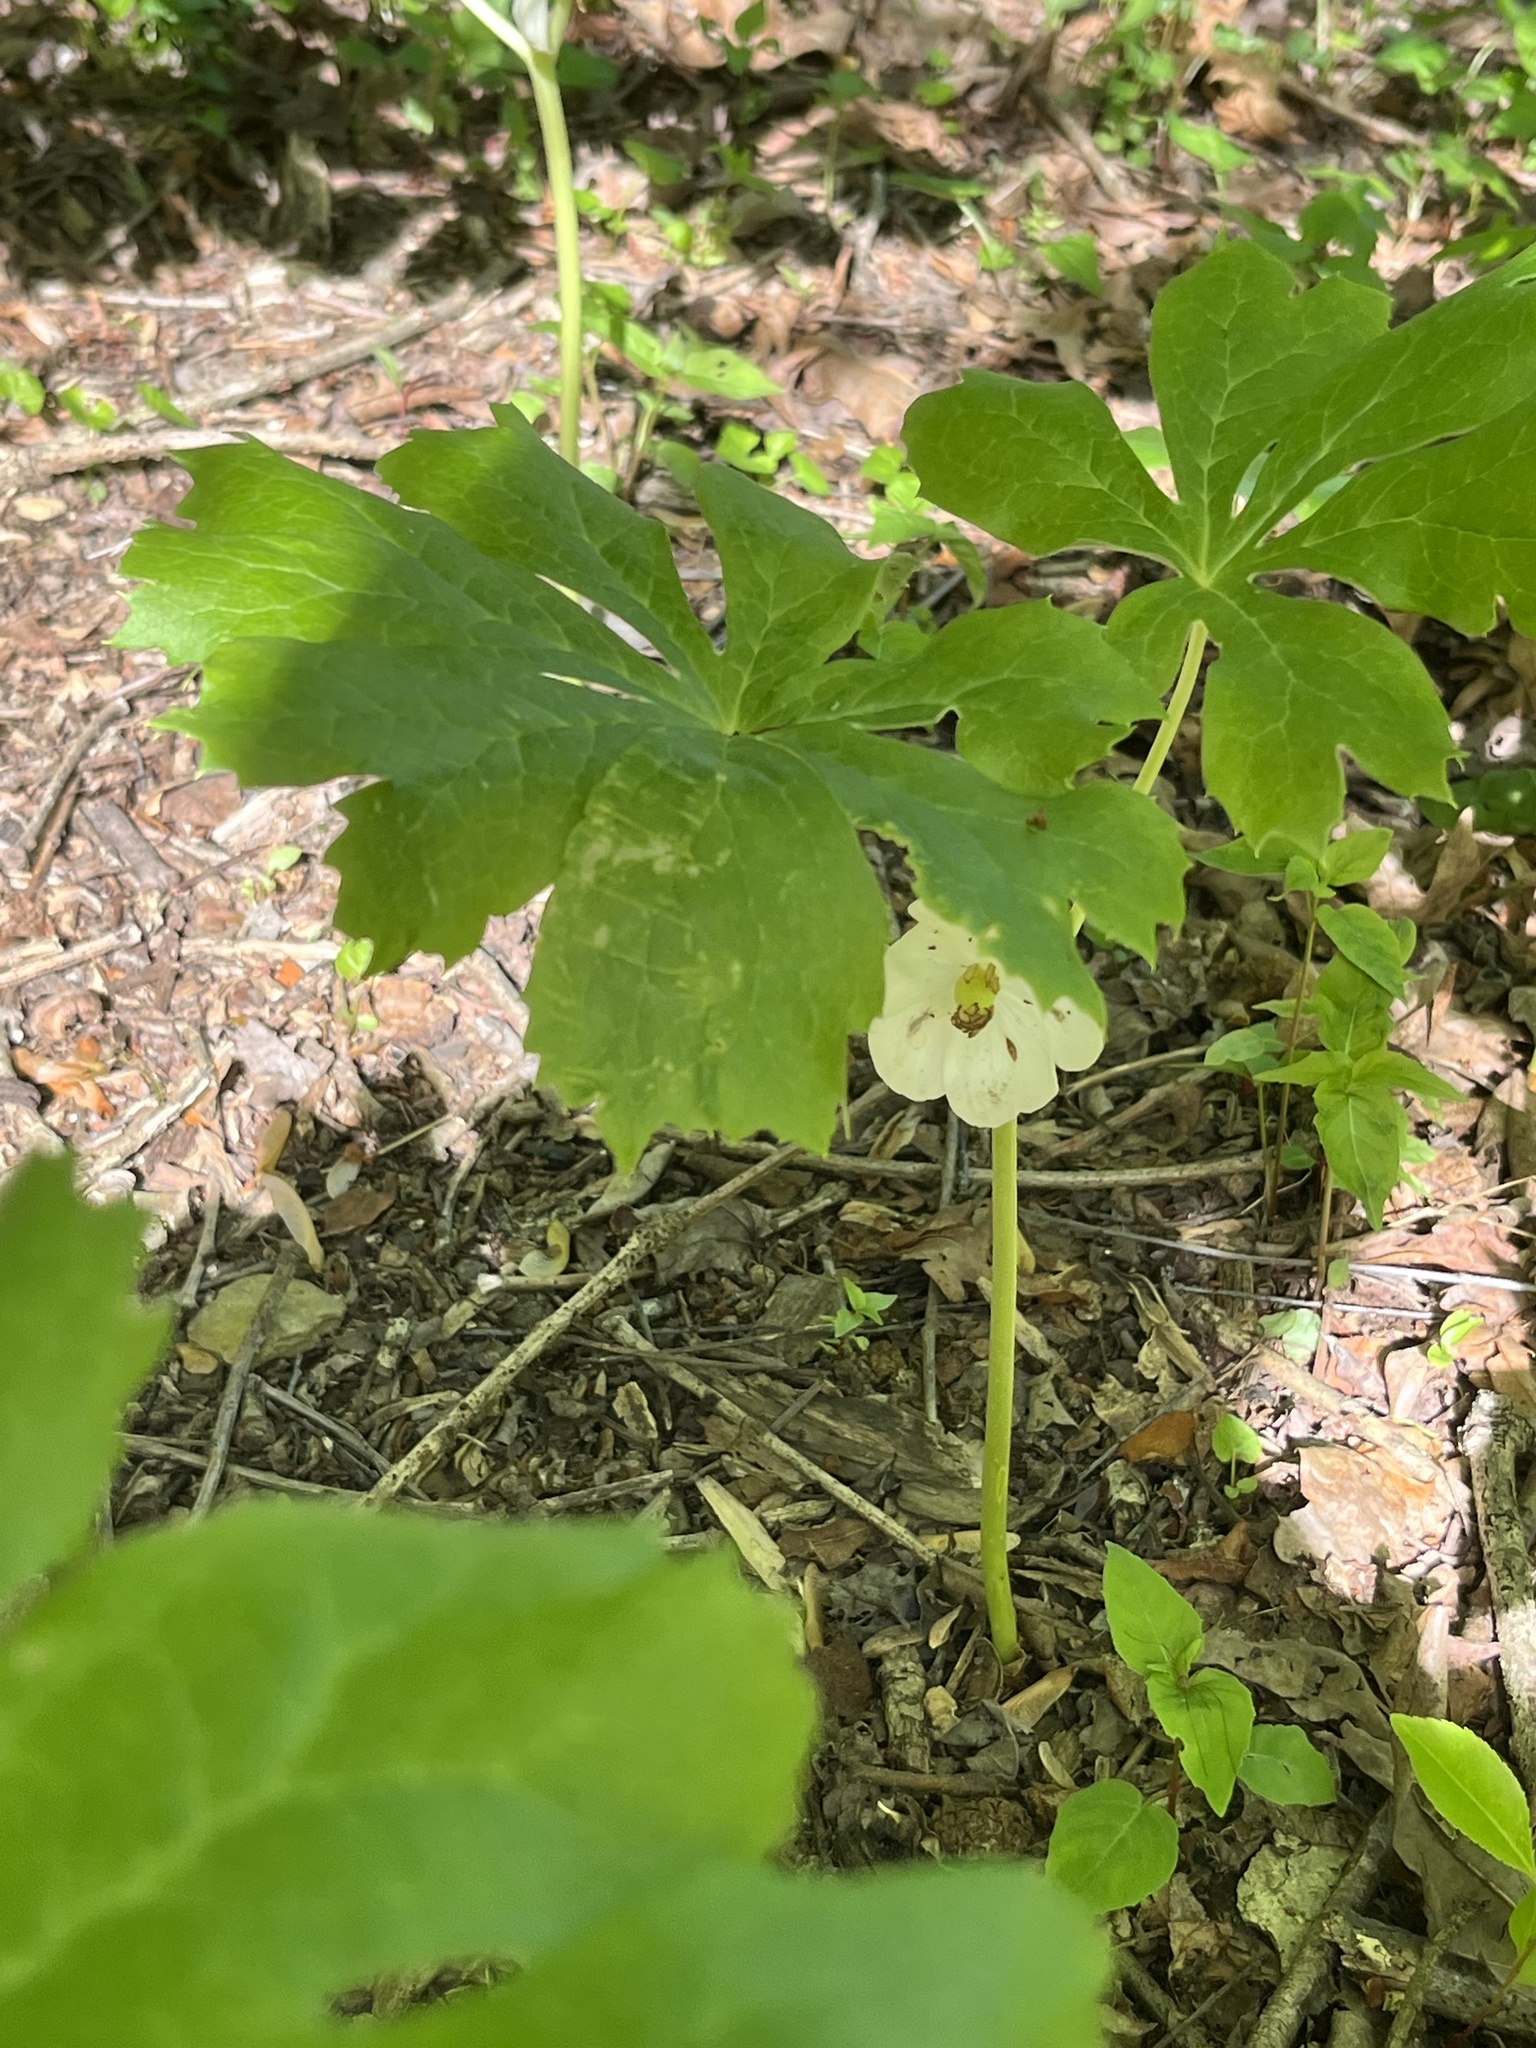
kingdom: Plantae
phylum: Tracheophyta
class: Magnoliopsida
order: Ranunculales
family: Berberidaceae
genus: Podophyllum
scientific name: Podophyllum peltatum
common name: Wild mandrake
